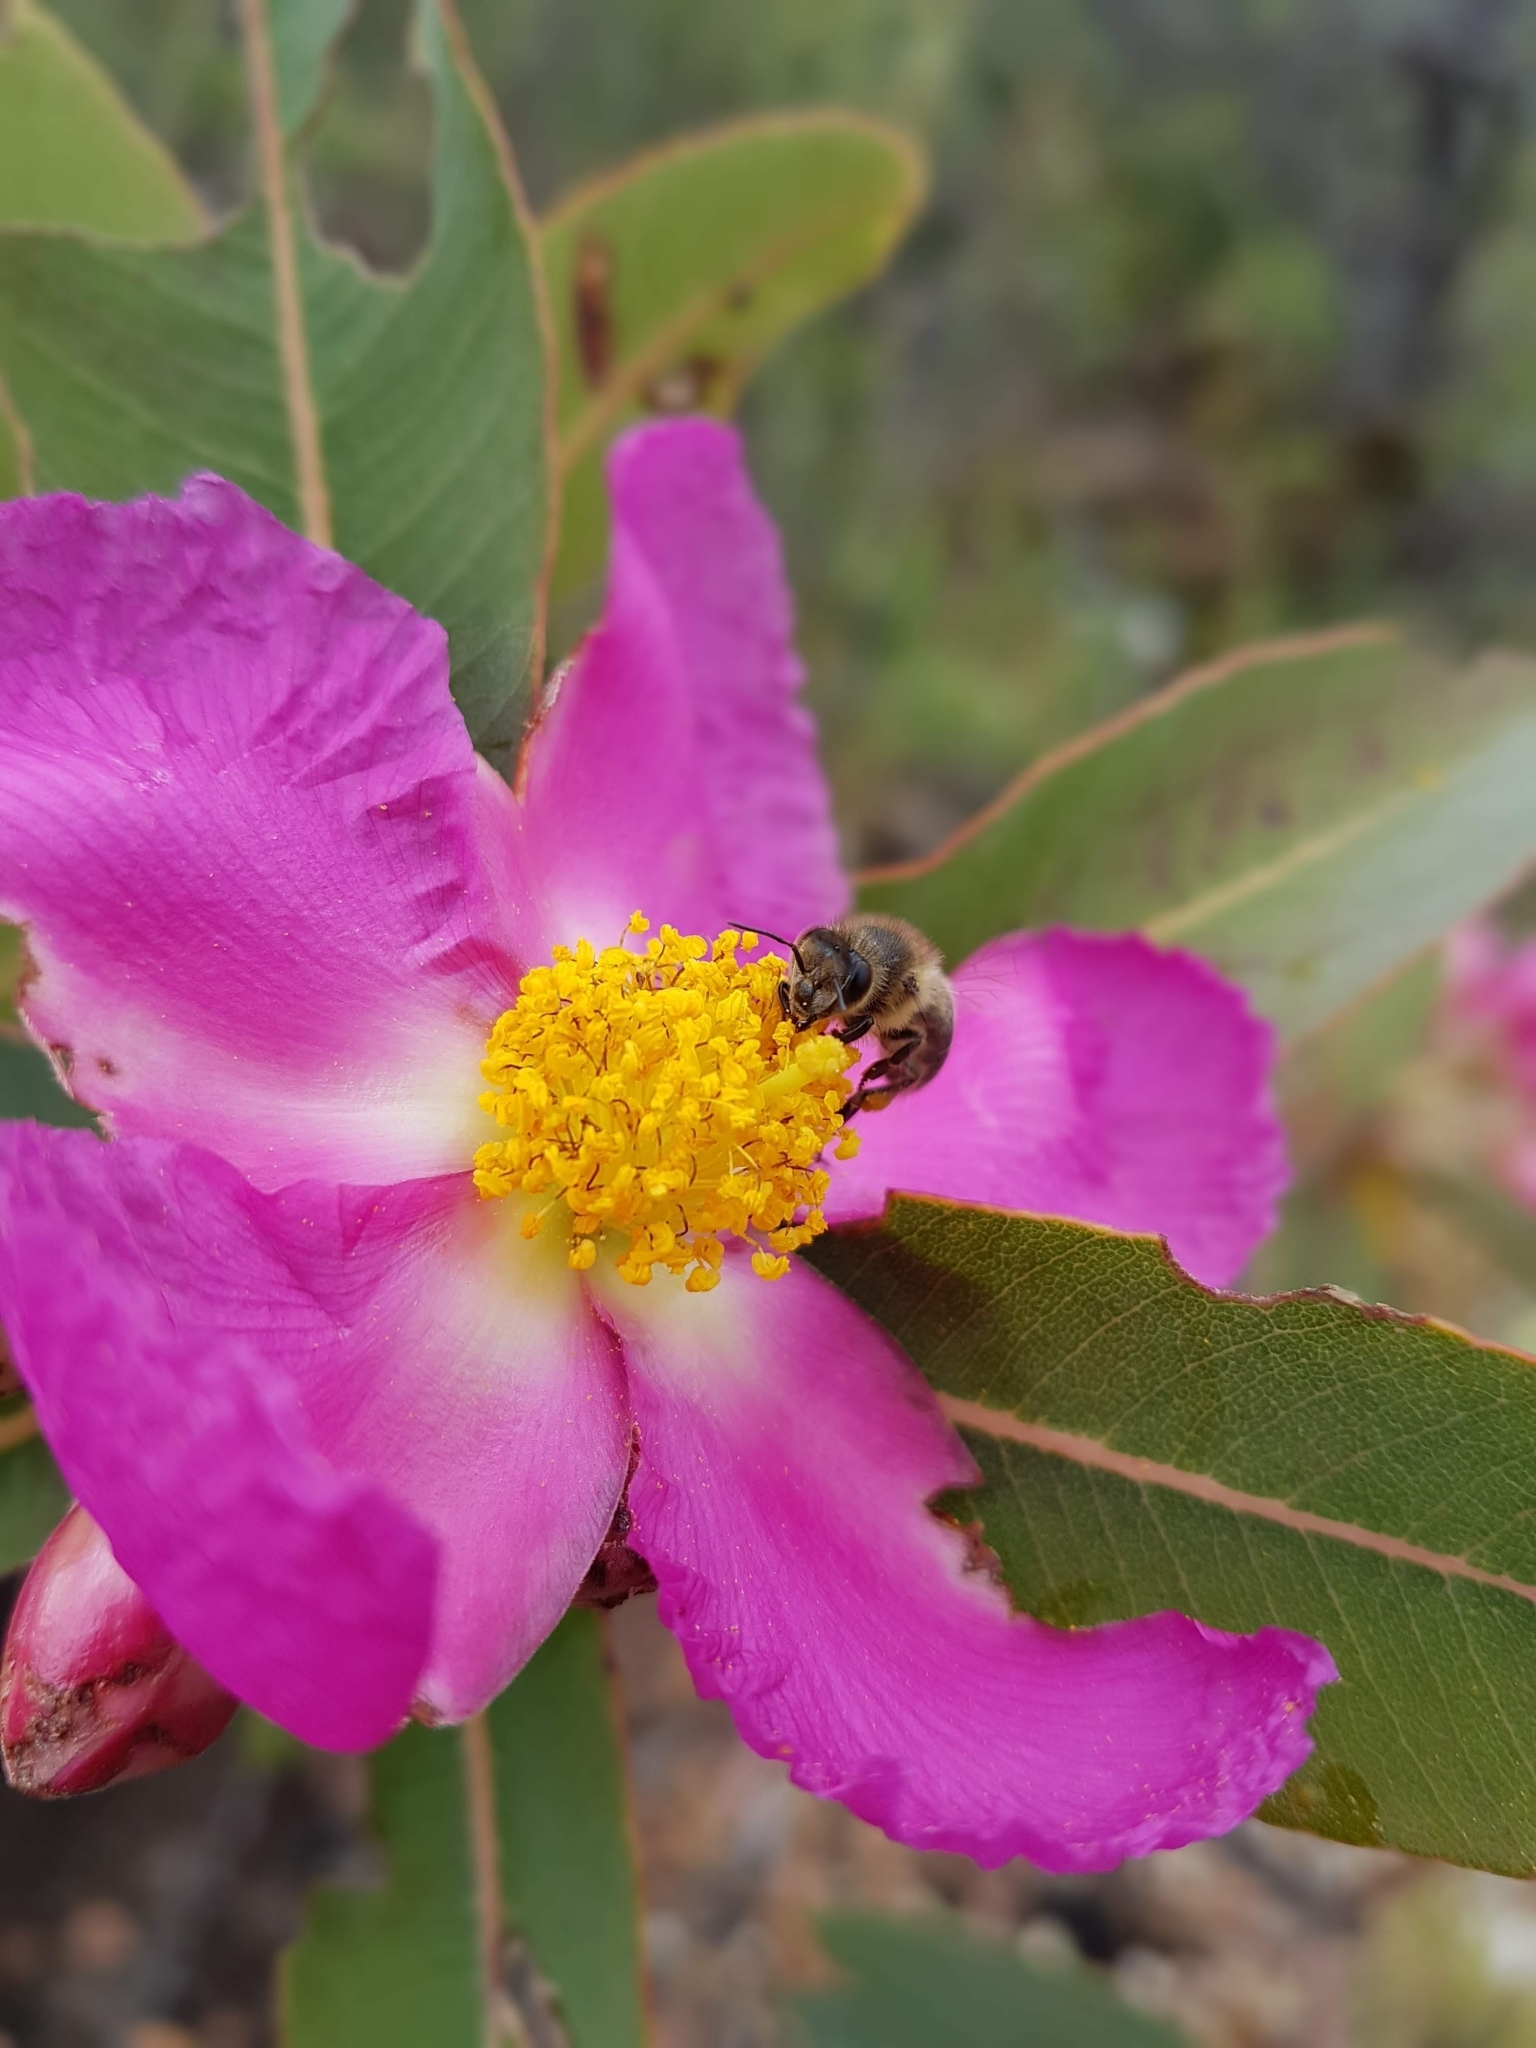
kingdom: Animalia
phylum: Arthropoda
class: Insecta
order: Hymenoptera
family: Apidae
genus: Apis
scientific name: Apis mellifera
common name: Honey bee
